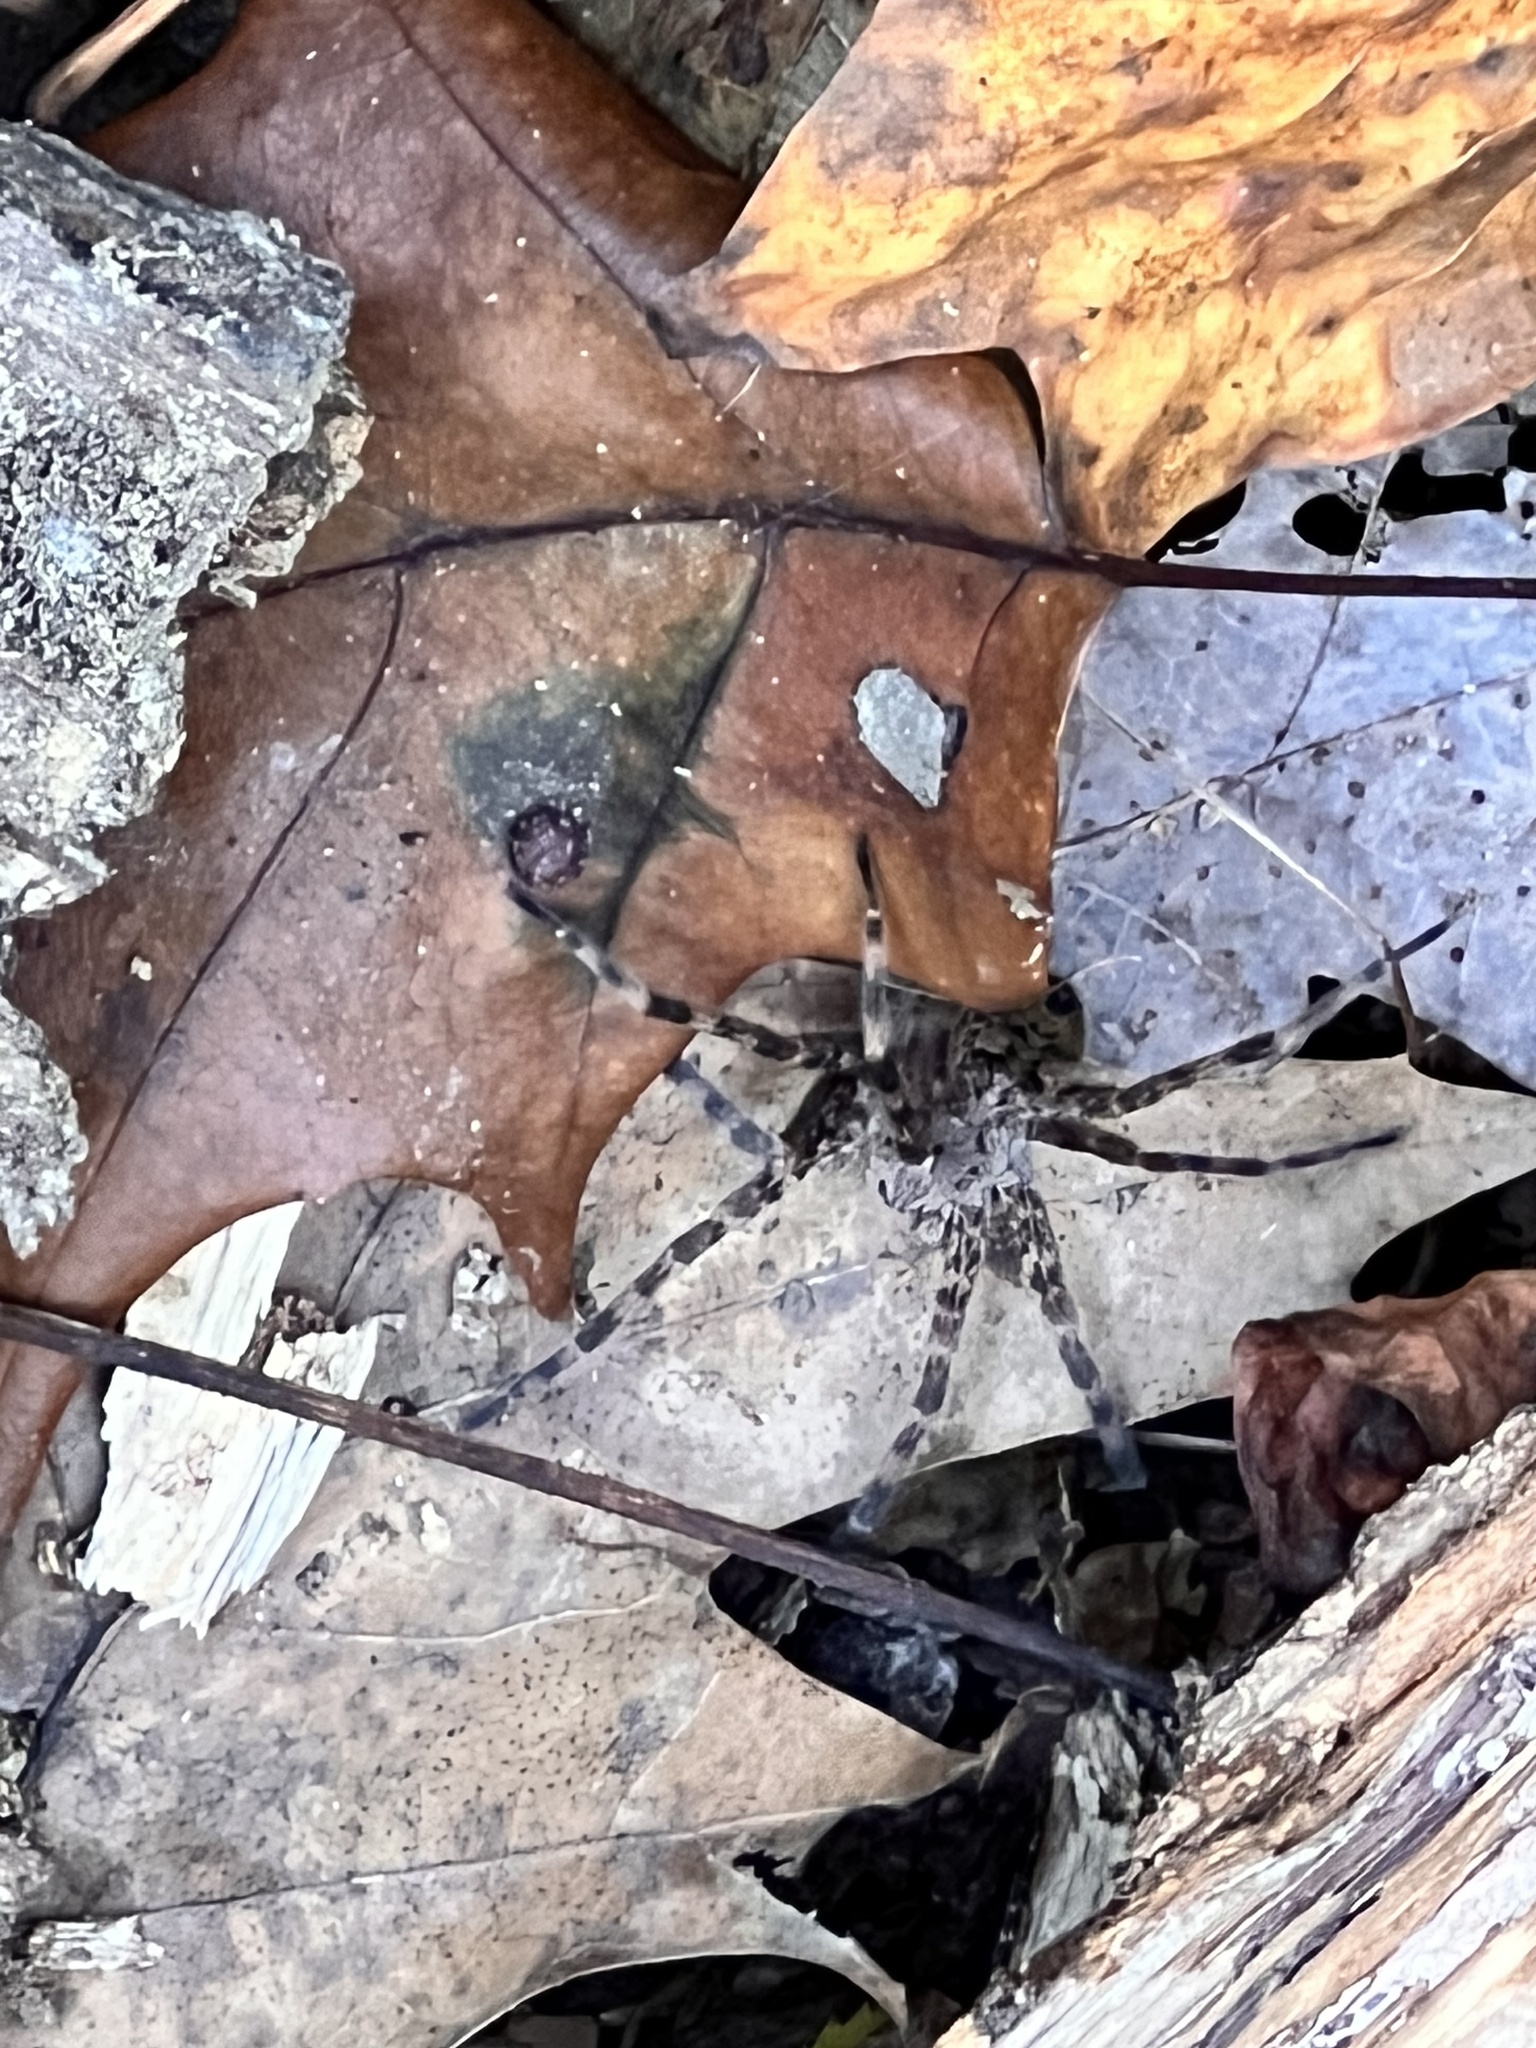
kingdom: Animalia
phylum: Arthropoda
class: Arachnida
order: Araneae
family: Pisauridae
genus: Dolomedes
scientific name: Dolomedes tenebrosus
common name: Dark fishing spider
